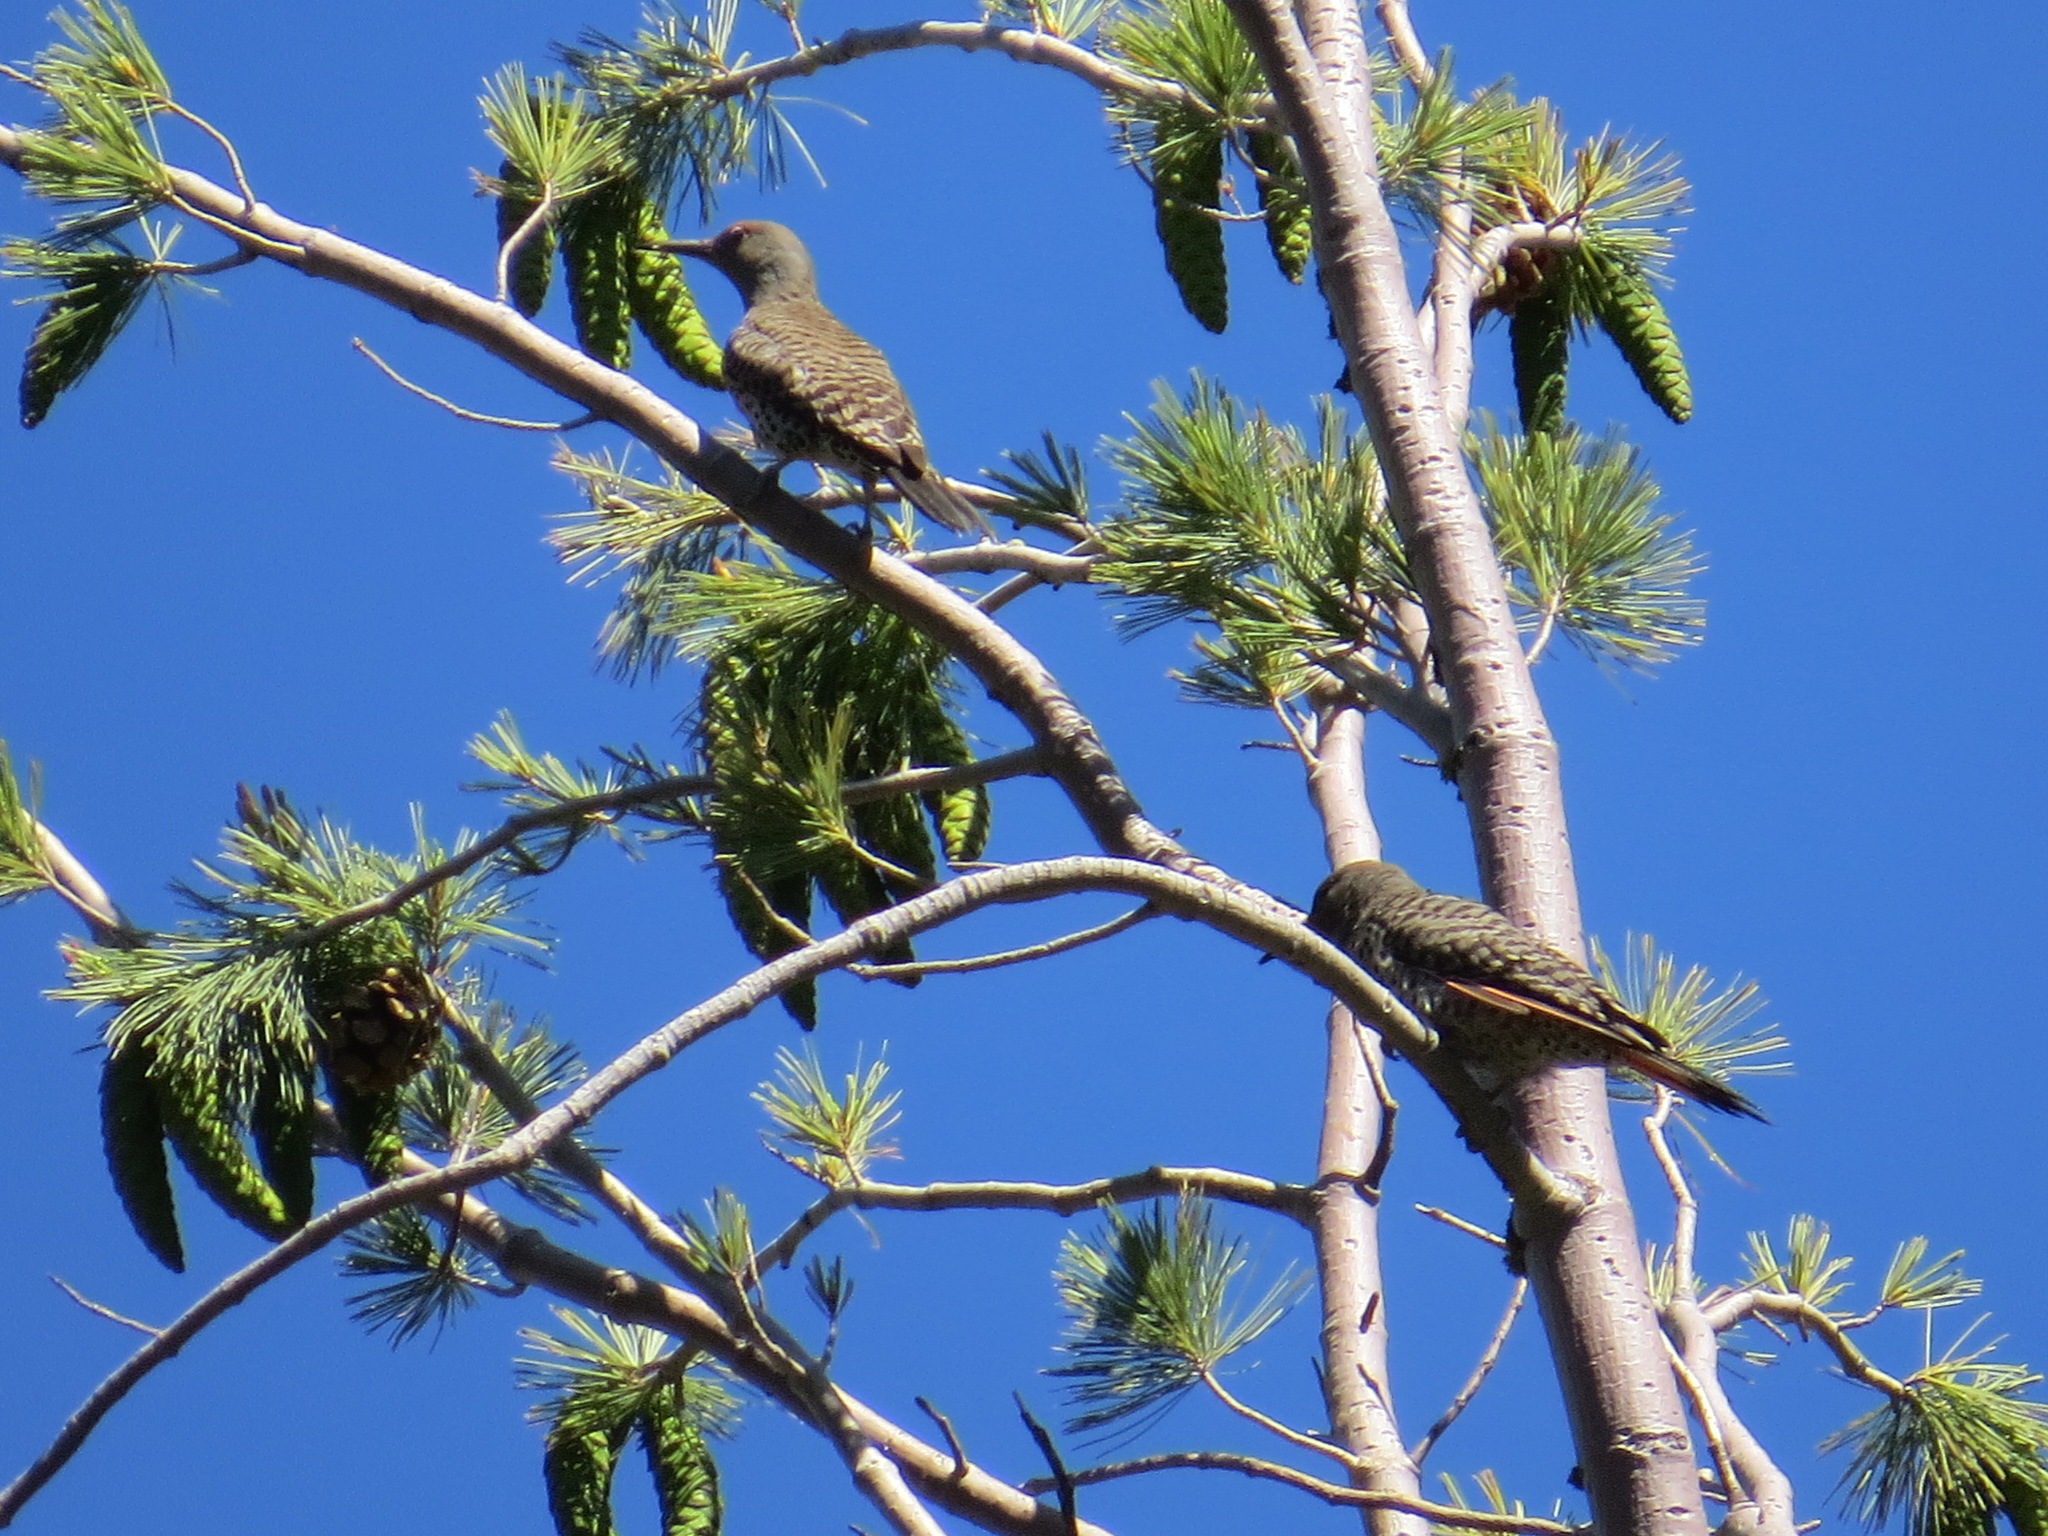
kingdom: Animalia
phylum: Chordata
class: Aves
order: Piciformes
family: Picidae
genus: Colaptes
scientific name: Colaptes auratus
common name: Northern flicker
